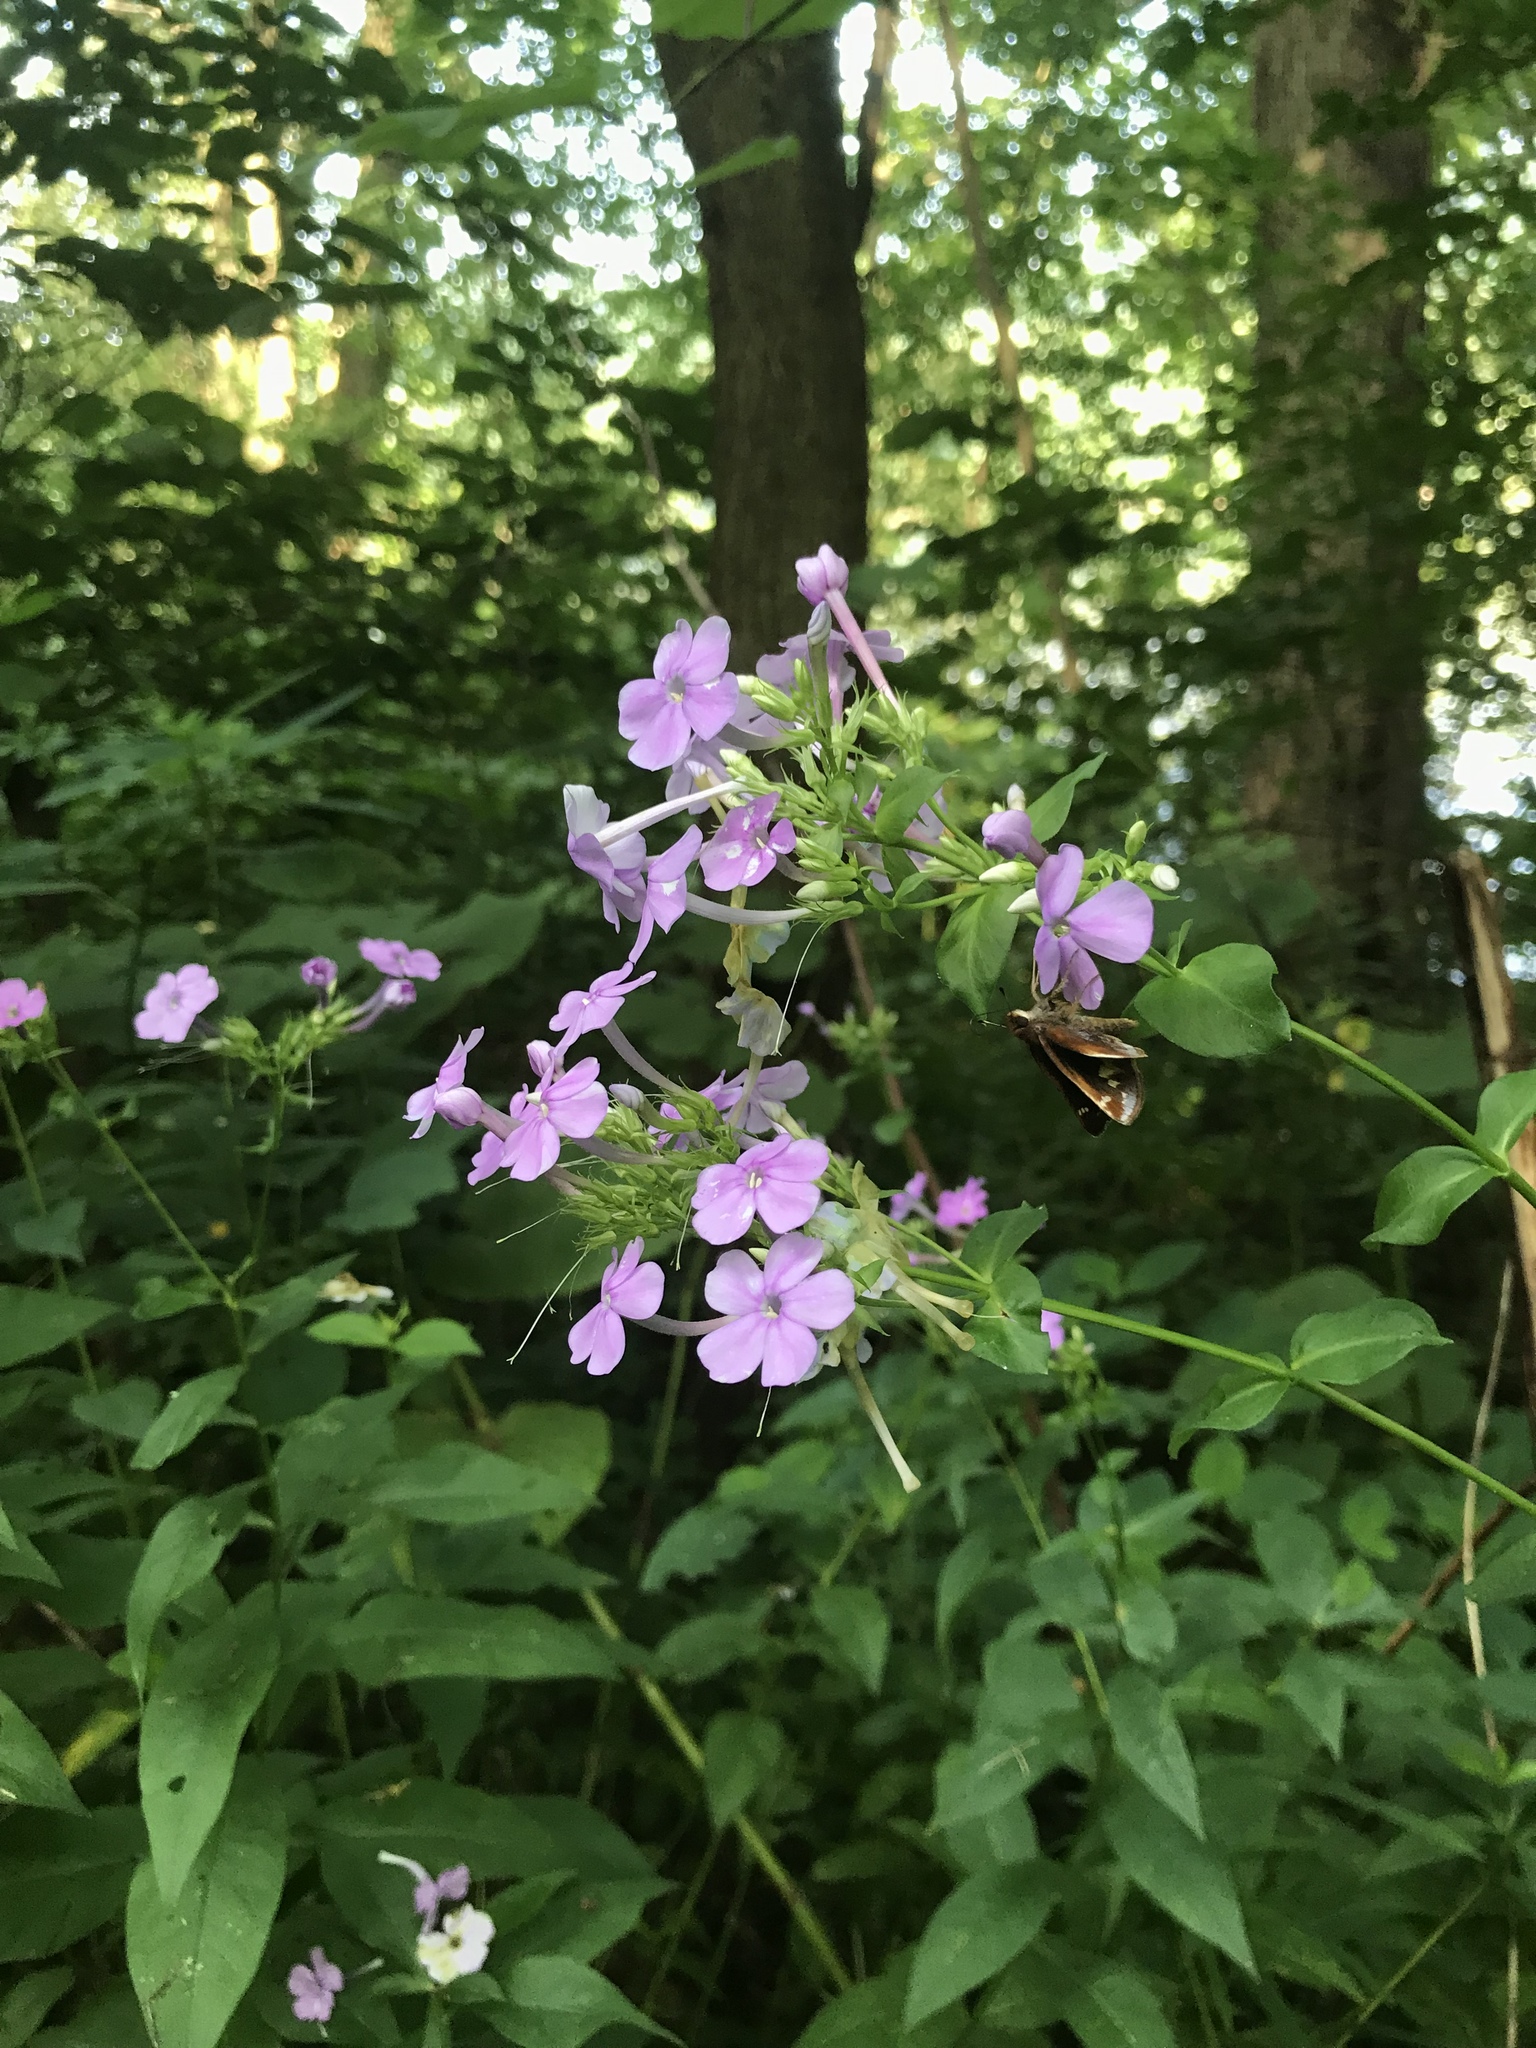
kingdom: Plantae
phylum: Tracheophyta
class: Magnoliopsida
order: Ericales
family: Polemoniaceae
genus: Phlox
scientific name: Phlox paniculata
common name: Fall phlox
